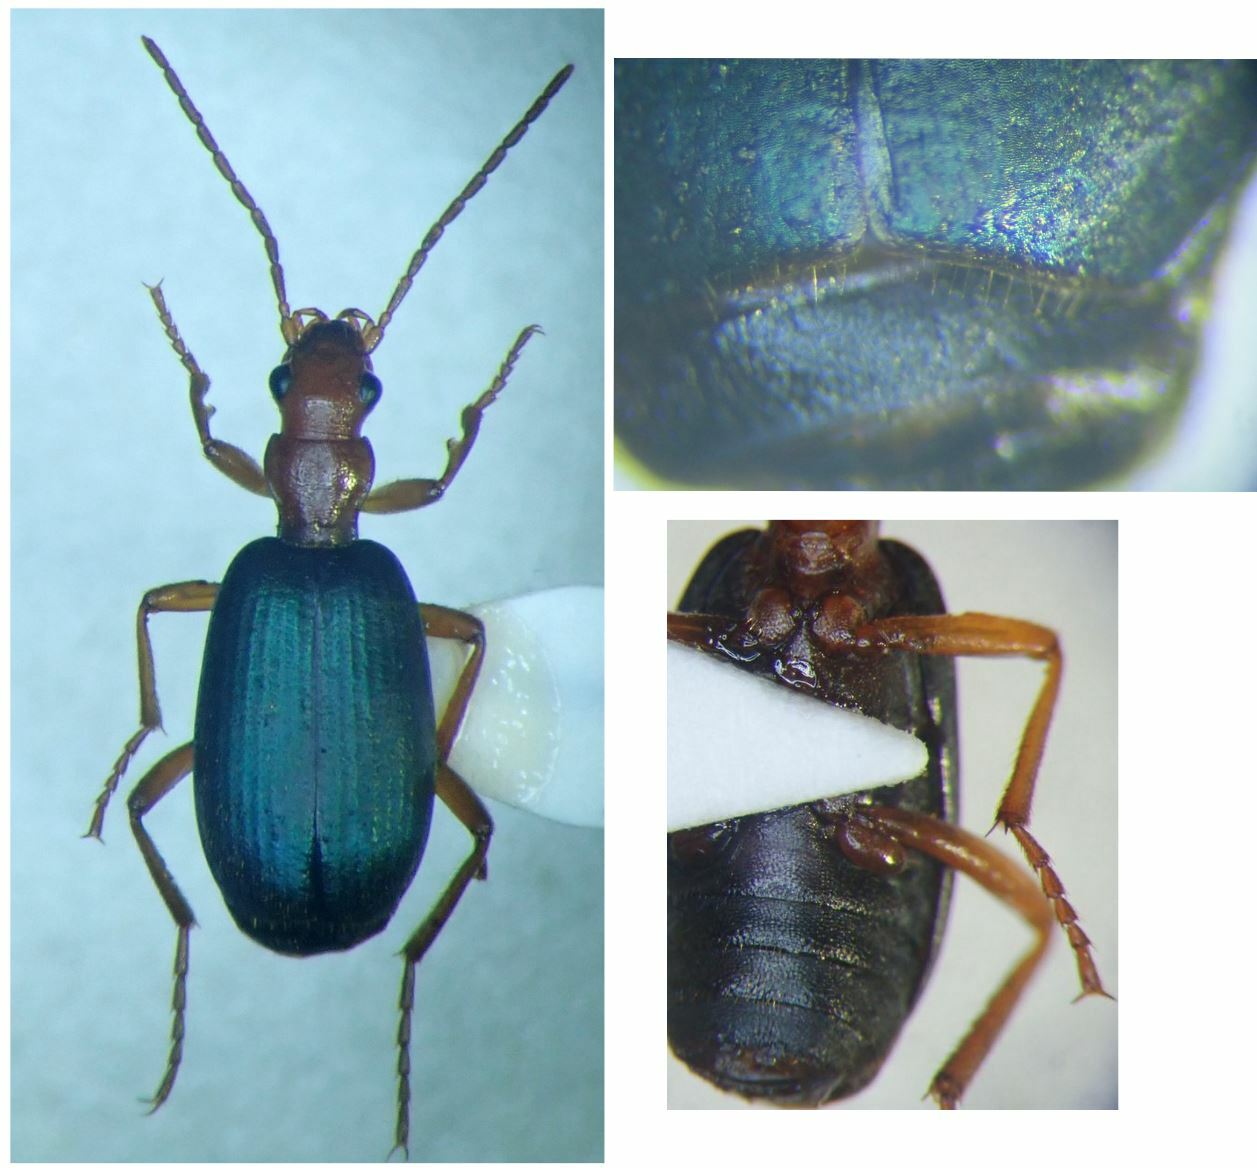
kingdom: Animalia
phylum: Arthropoda
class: Insecta
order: Coleoptera
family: Carabidae
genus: Brachinus
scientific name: Brachinus crepitans
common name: Bombadier beetle
